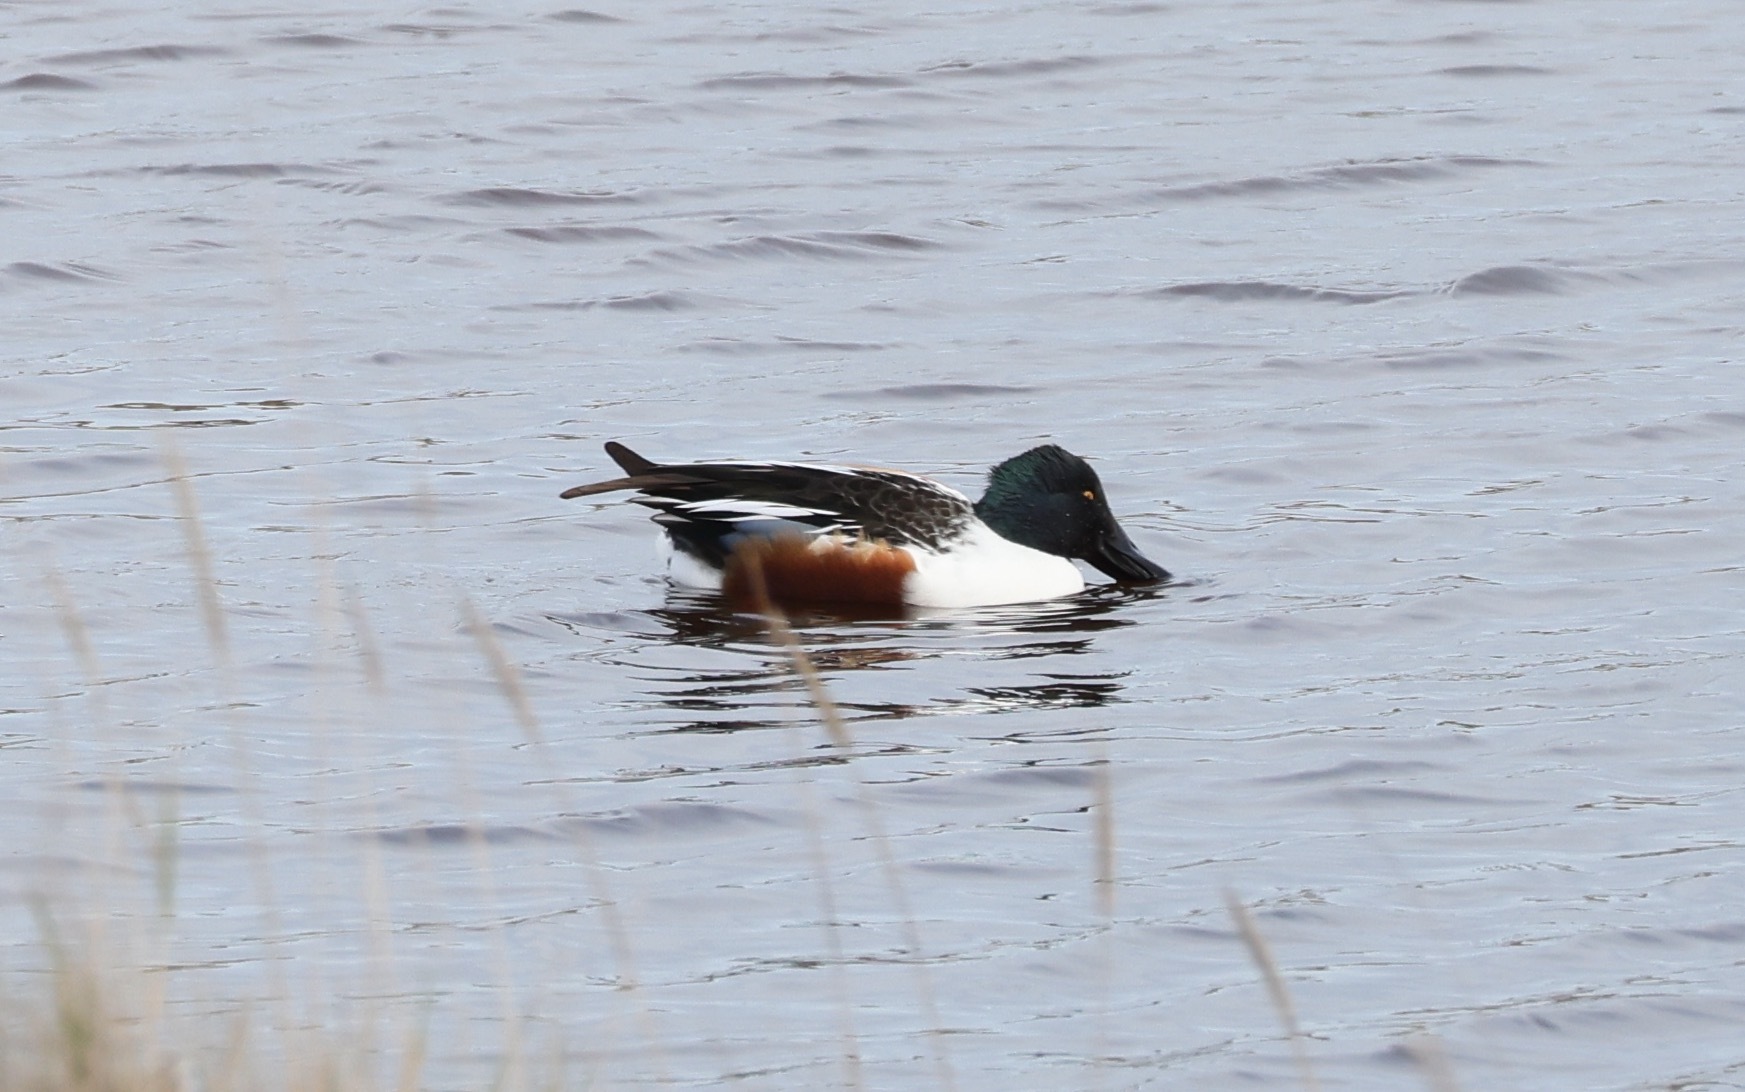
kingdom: Animalia
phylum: Chordata
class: Aves
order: Anseriformes
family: Anatidae
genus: Spatula
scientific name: Spatula clypeata
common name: Northern shoveler
